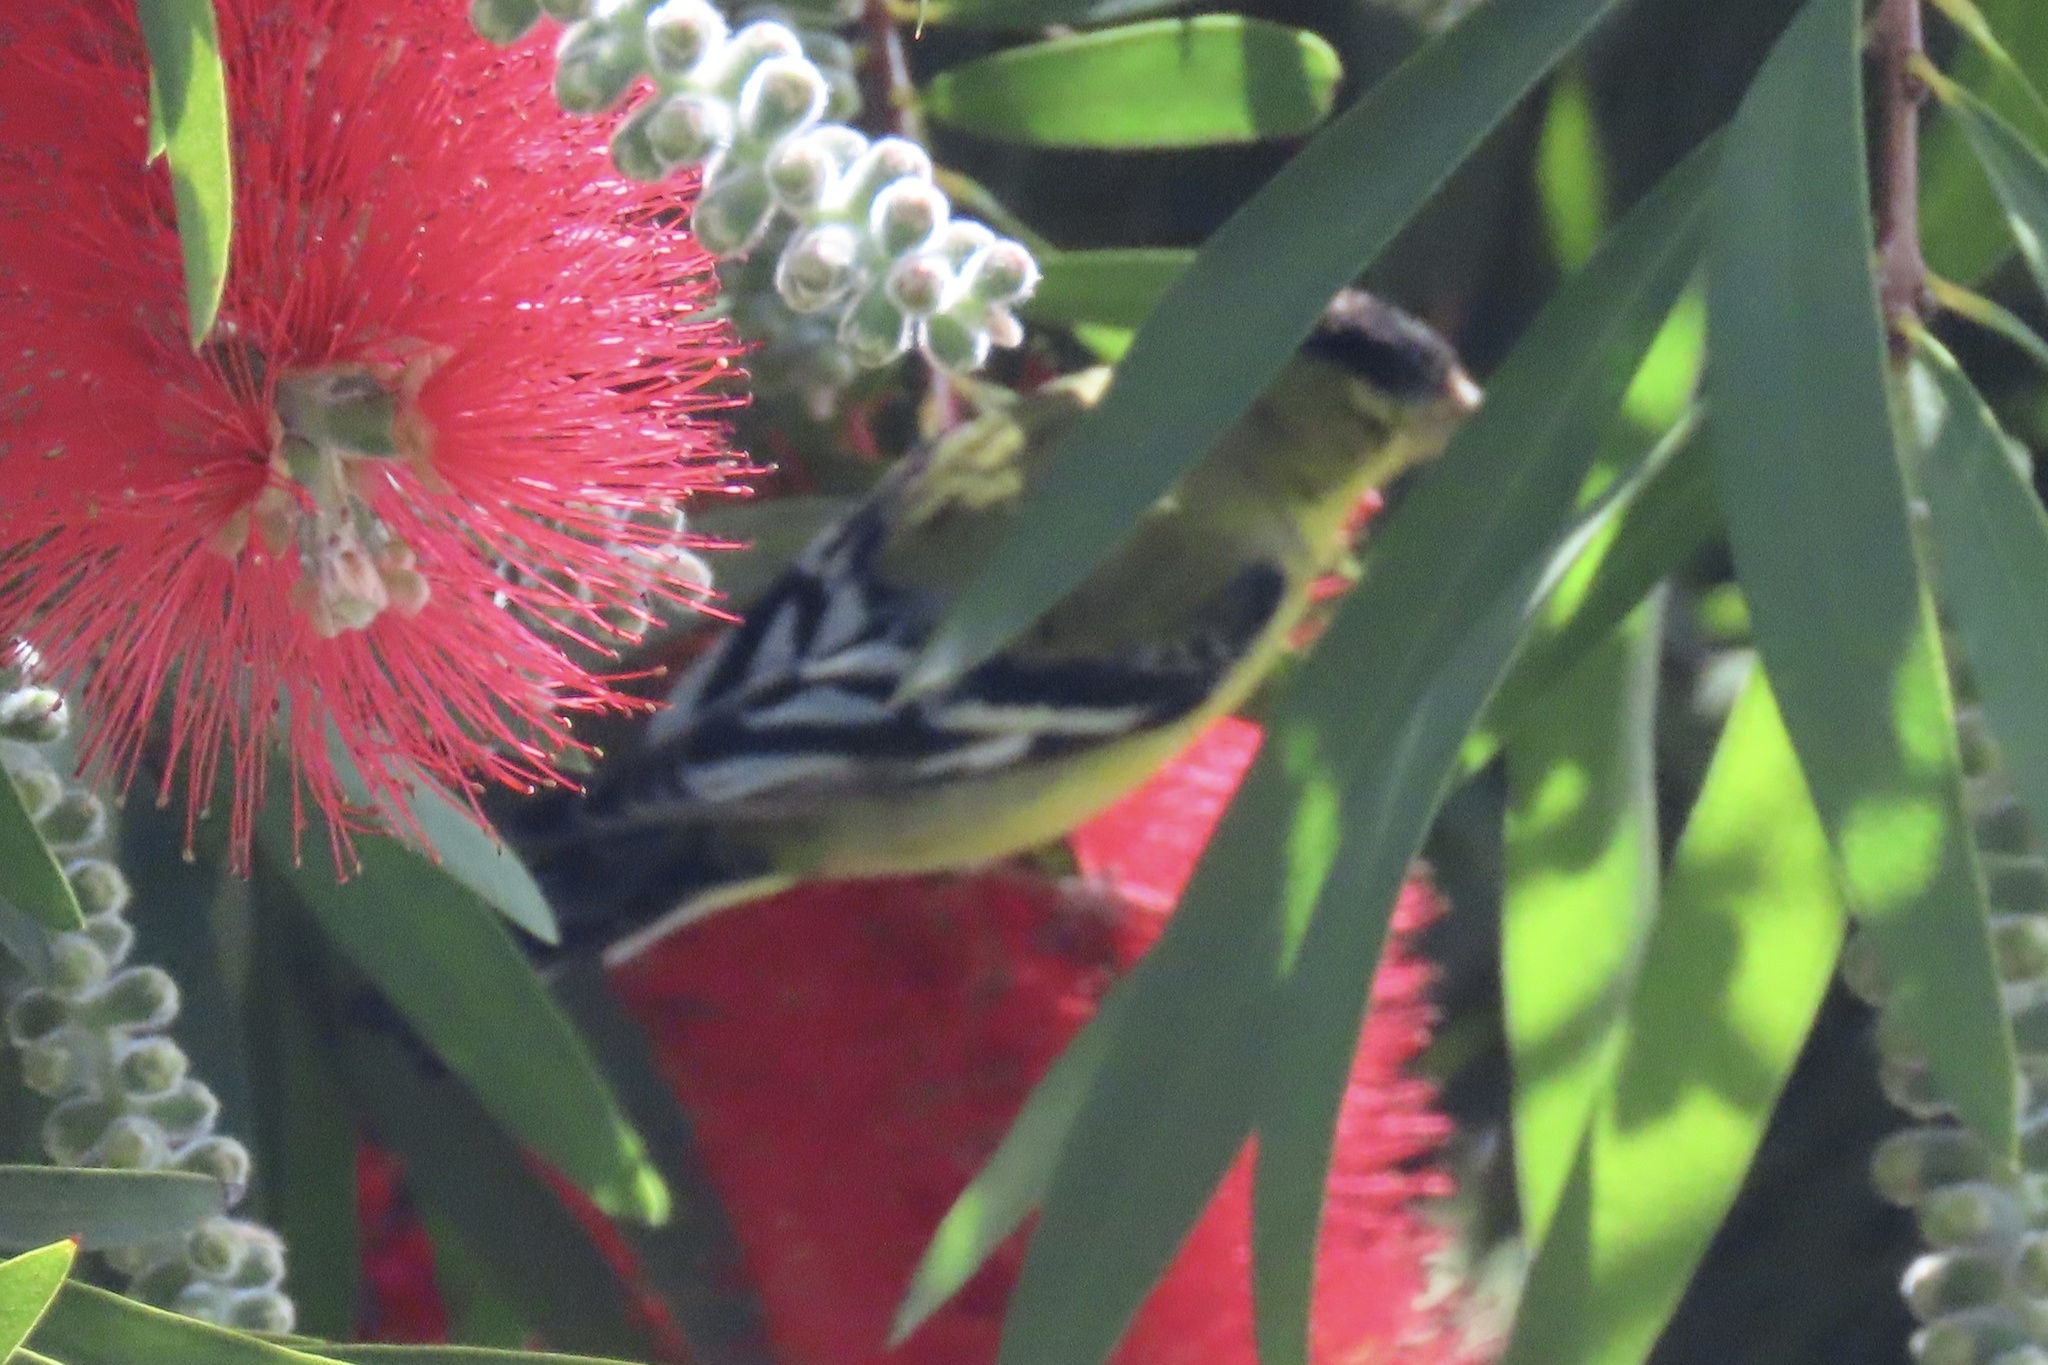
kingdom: Animalia
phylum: Chordata
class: Aves
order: Passeriformes
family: Fringillidae
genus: Spinus
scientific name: Spinus psaltria
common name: Lesser goldfinch
